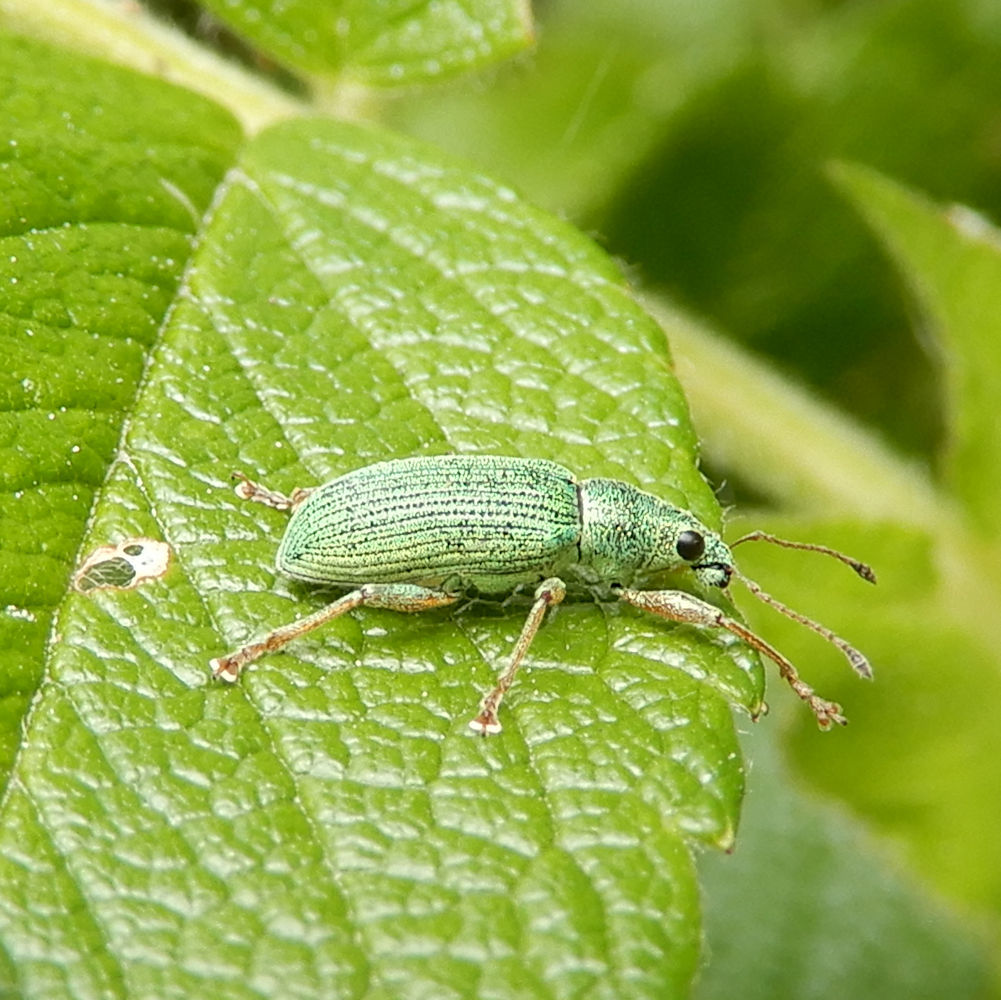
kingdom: Animalia
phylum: Arthropoda
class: Insecta
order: Coleoptera
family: Curculionidae
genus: Polydrusus
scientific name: Polydrusus formosus
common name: Weevil
